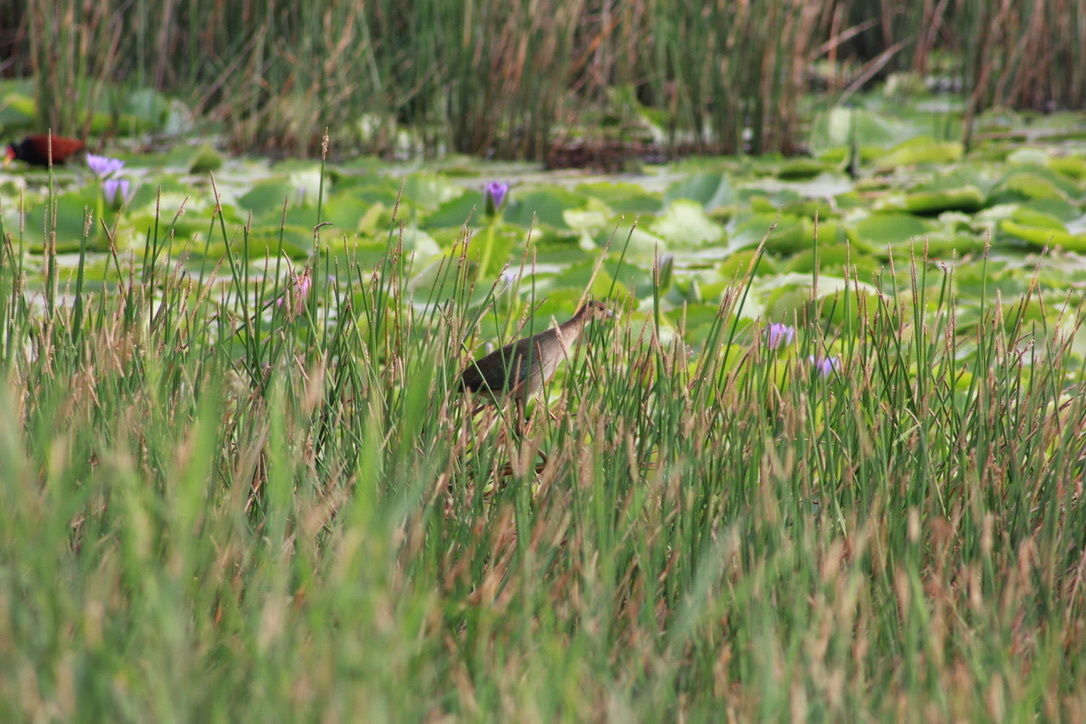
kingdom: Animalia
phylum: Chordata
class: Aves
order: Gruiformes
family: Rallidae
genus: Porphyrio
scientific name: Porphyrio martinica
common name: Purple gallinule
